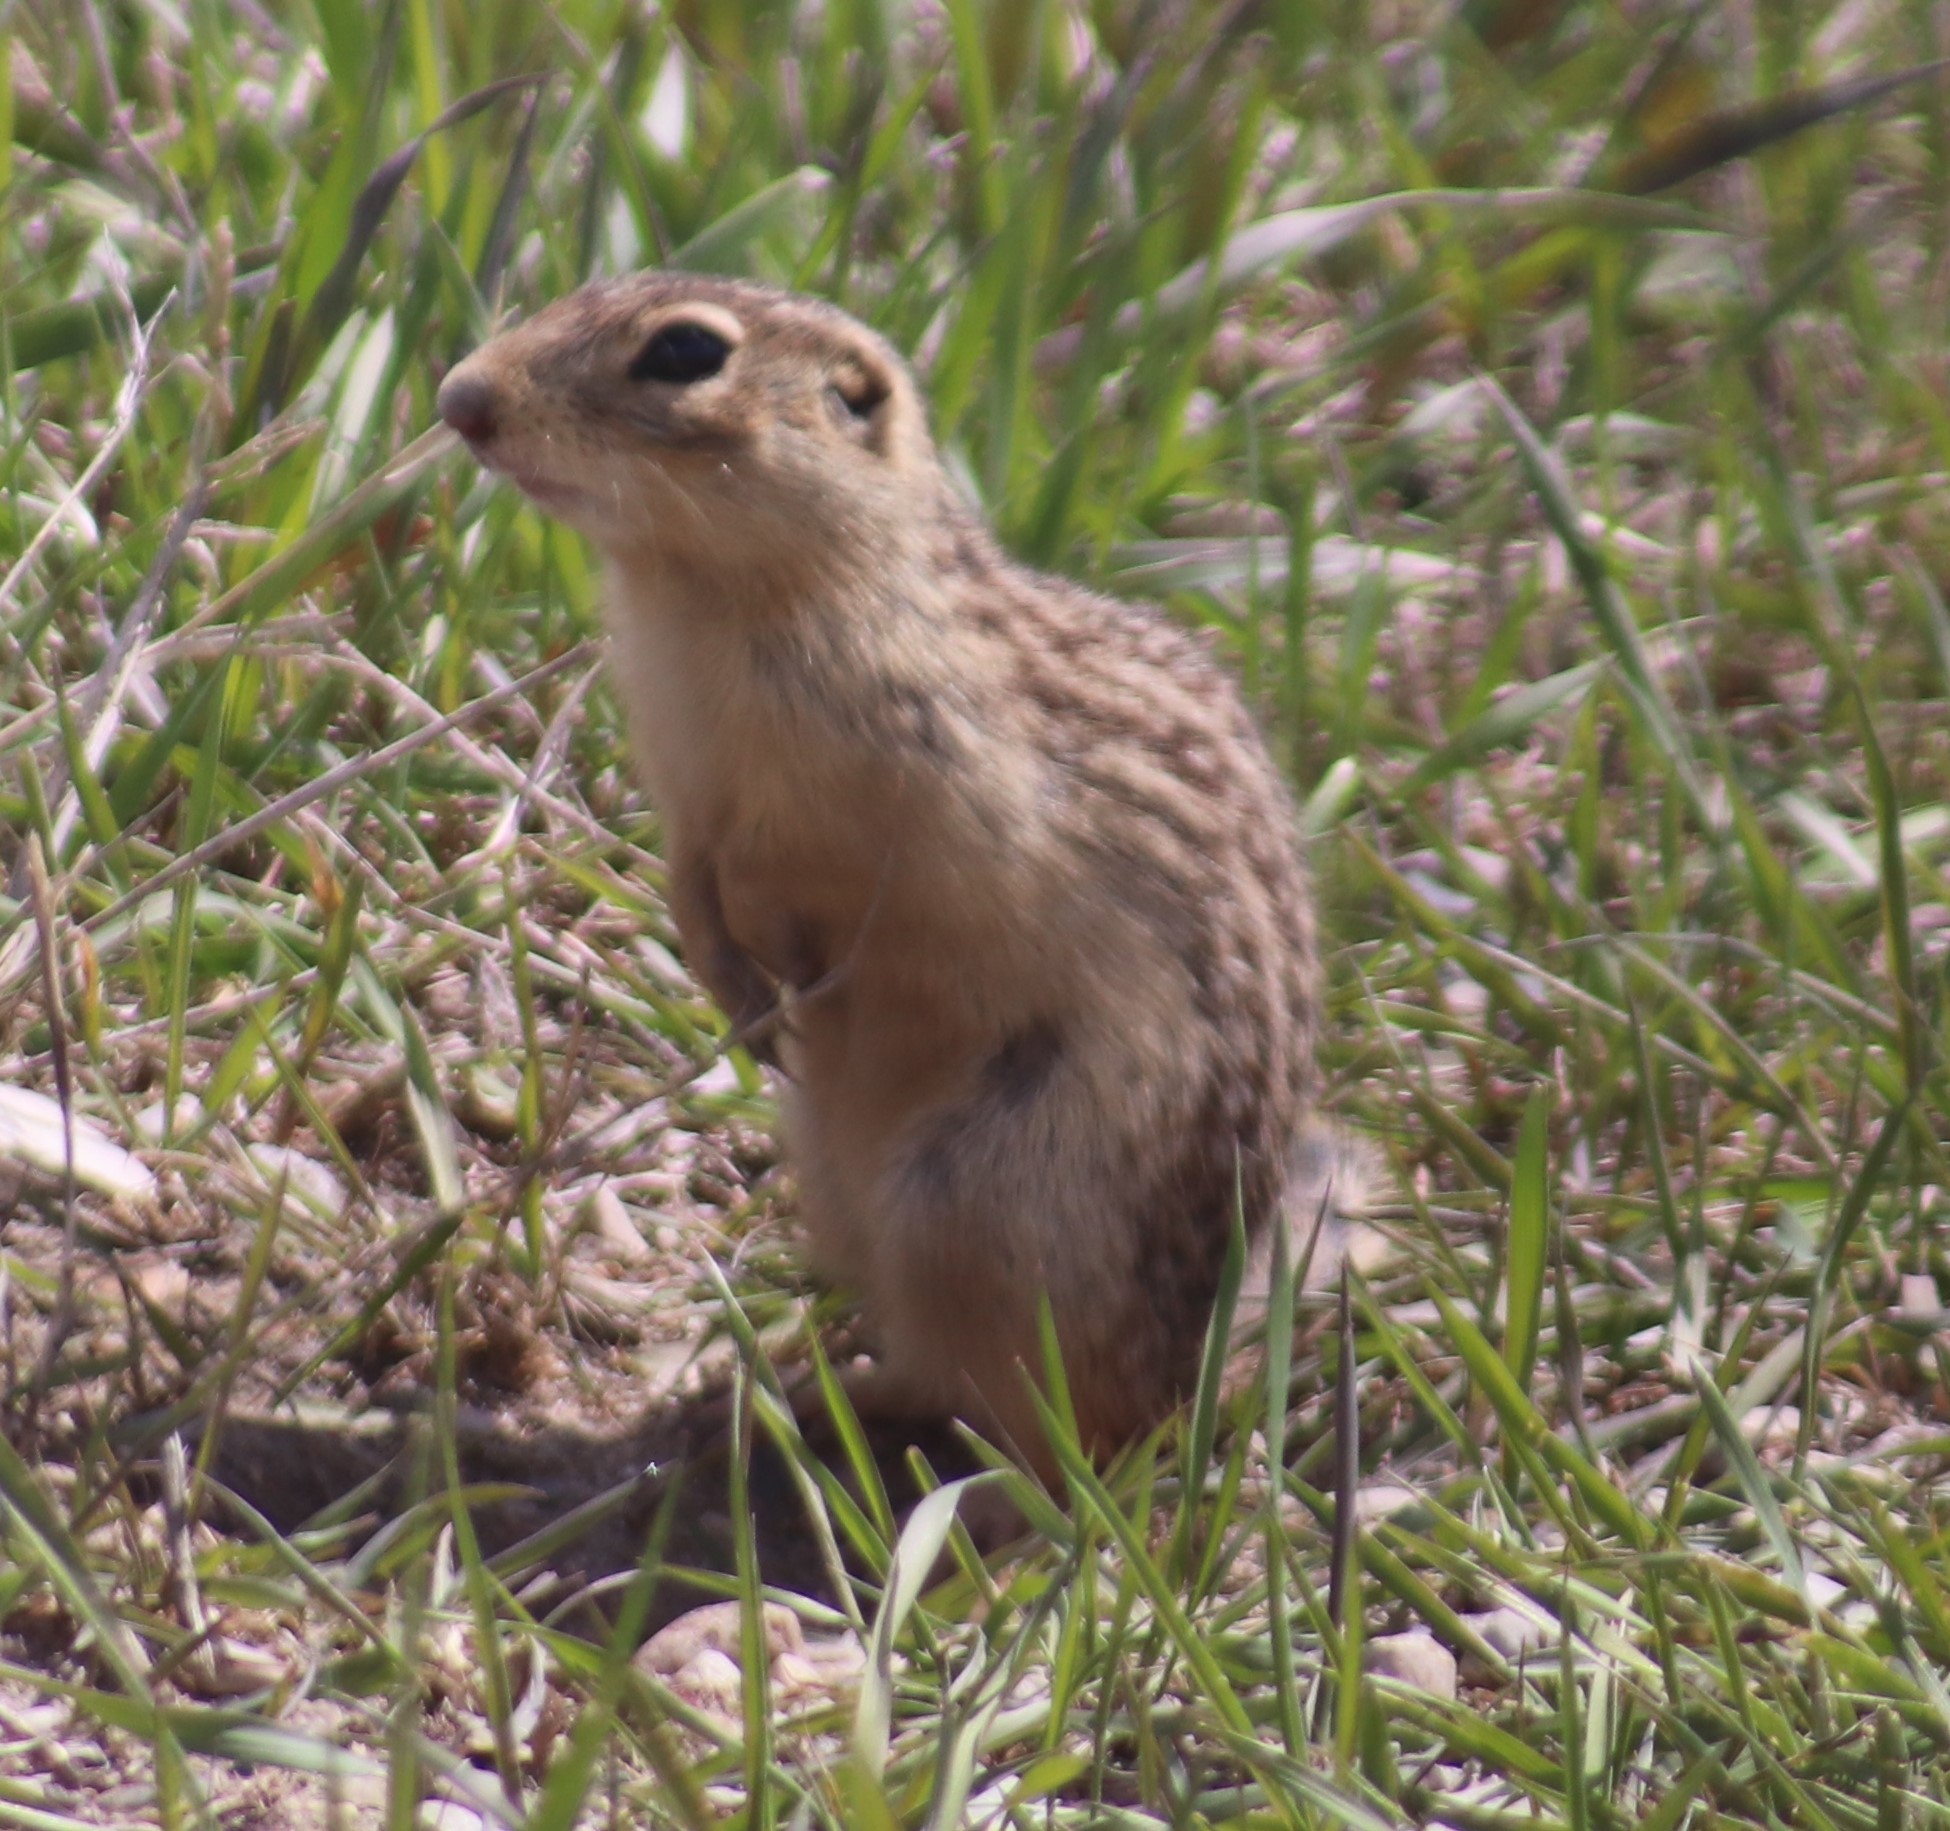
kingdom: Animalia
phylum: Chordata
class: Mammalia
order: Rodentia
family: Sciuridae
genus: Ictidomys
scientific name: Ictidomys tridecemlineatus
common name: Thirteen-lined ground squirrel
